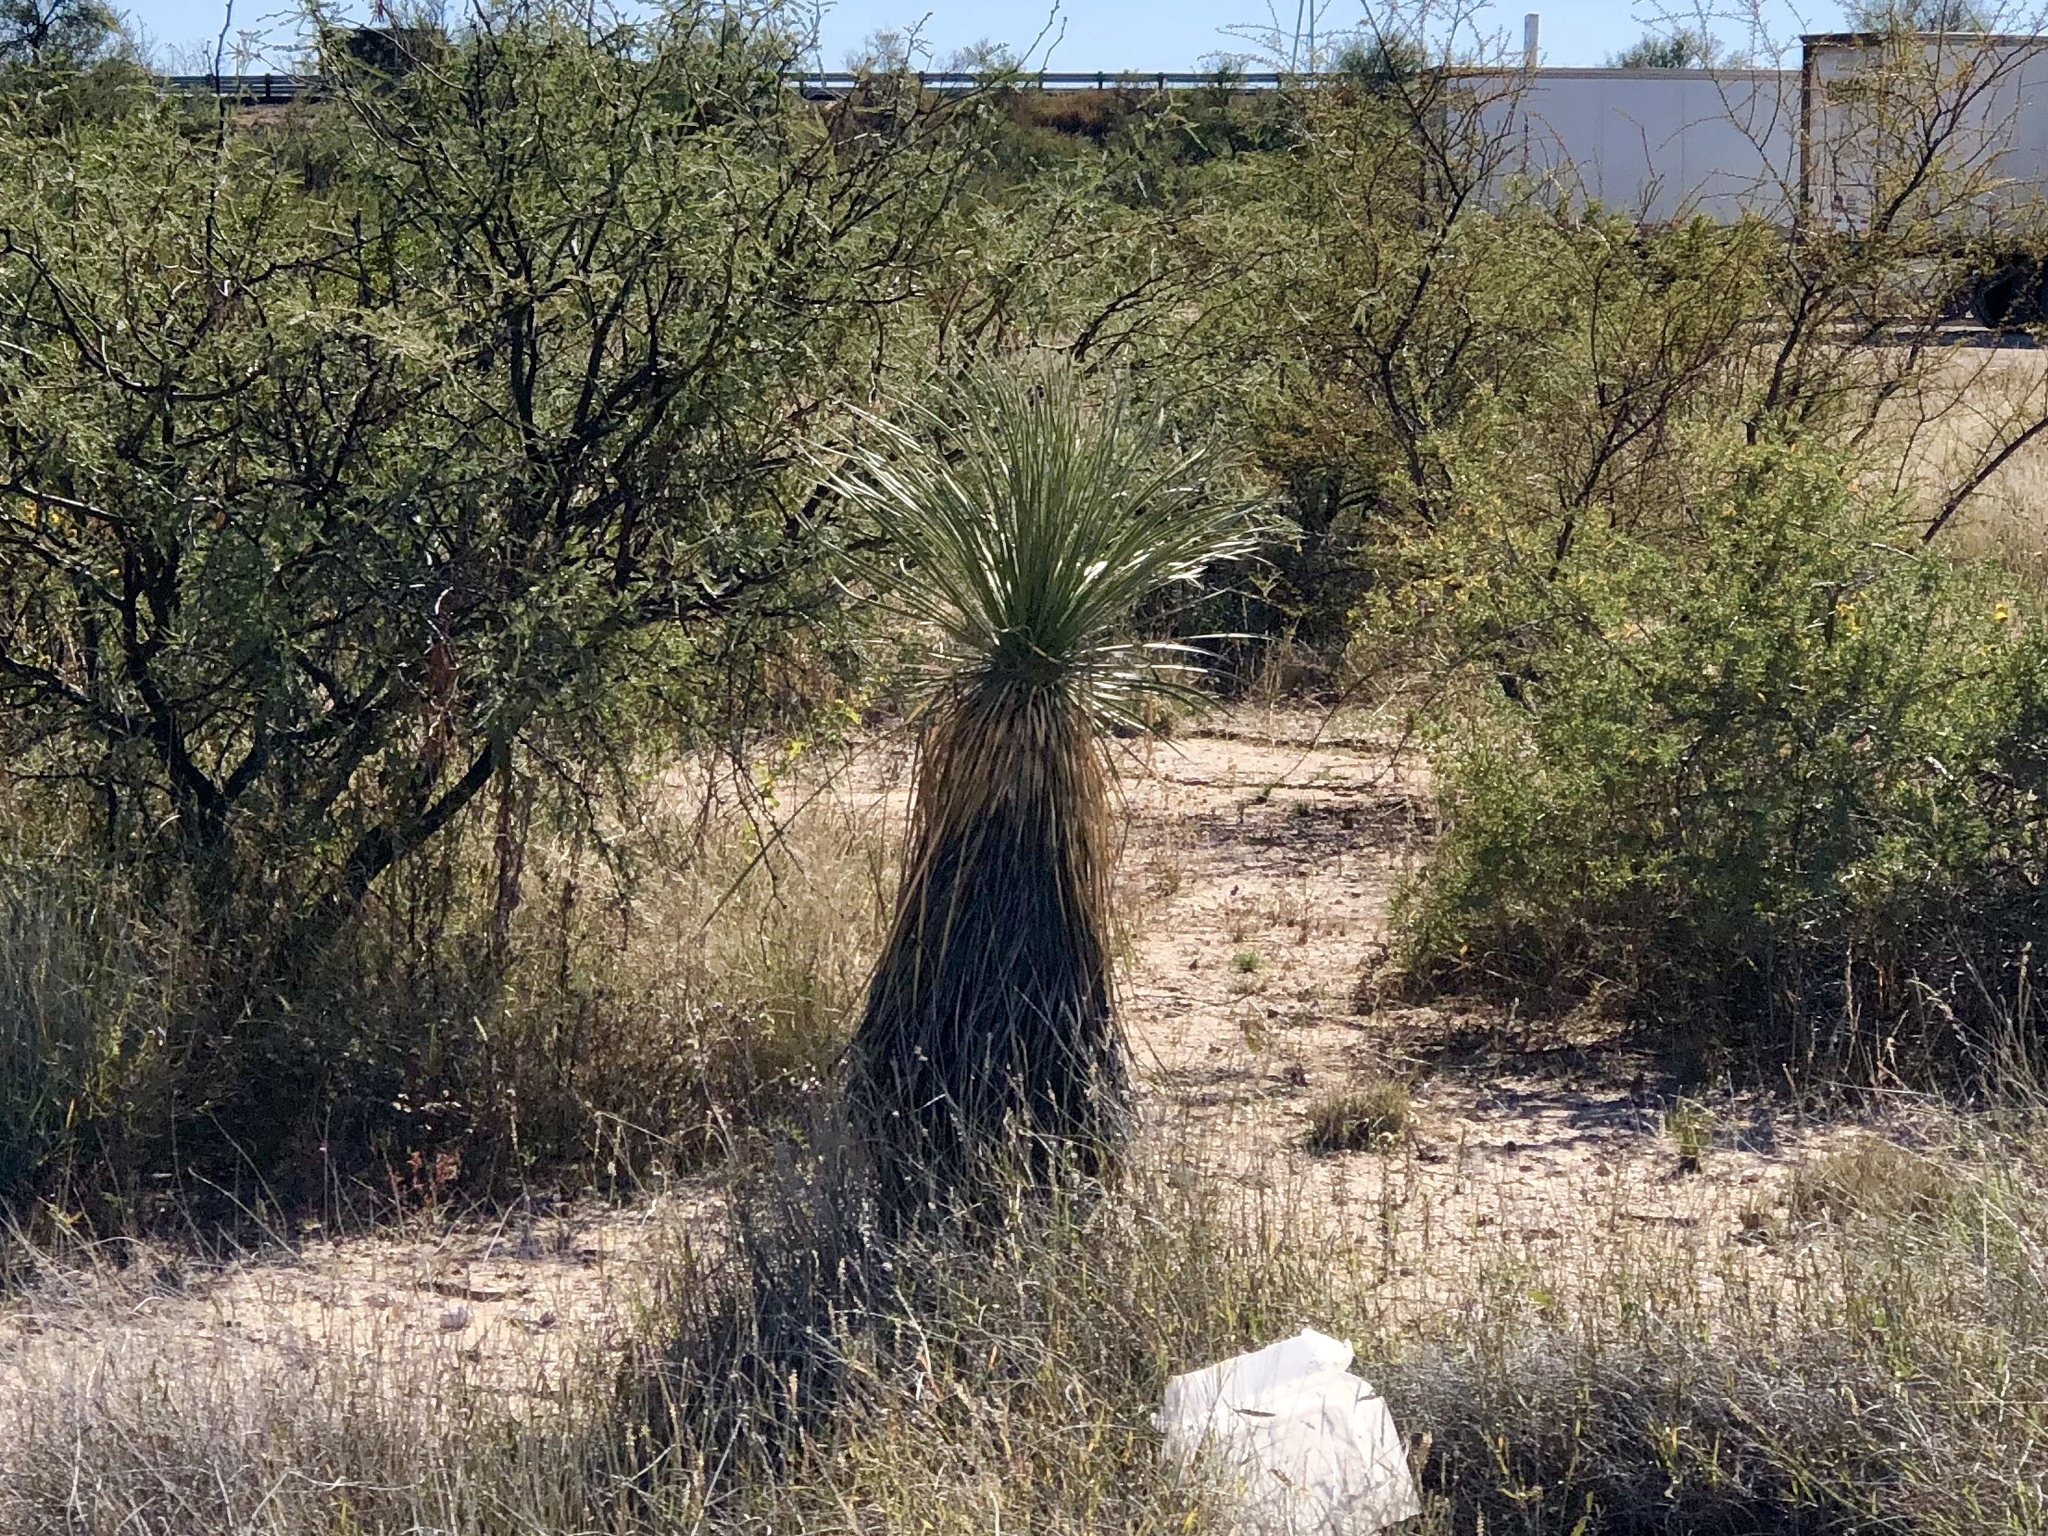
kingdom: Plantae
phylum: Tracheophyta
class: Liliopsida
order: Asparagales
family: Asparagaceae
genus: Yucca
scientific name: Yucca elata
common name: Palmella
